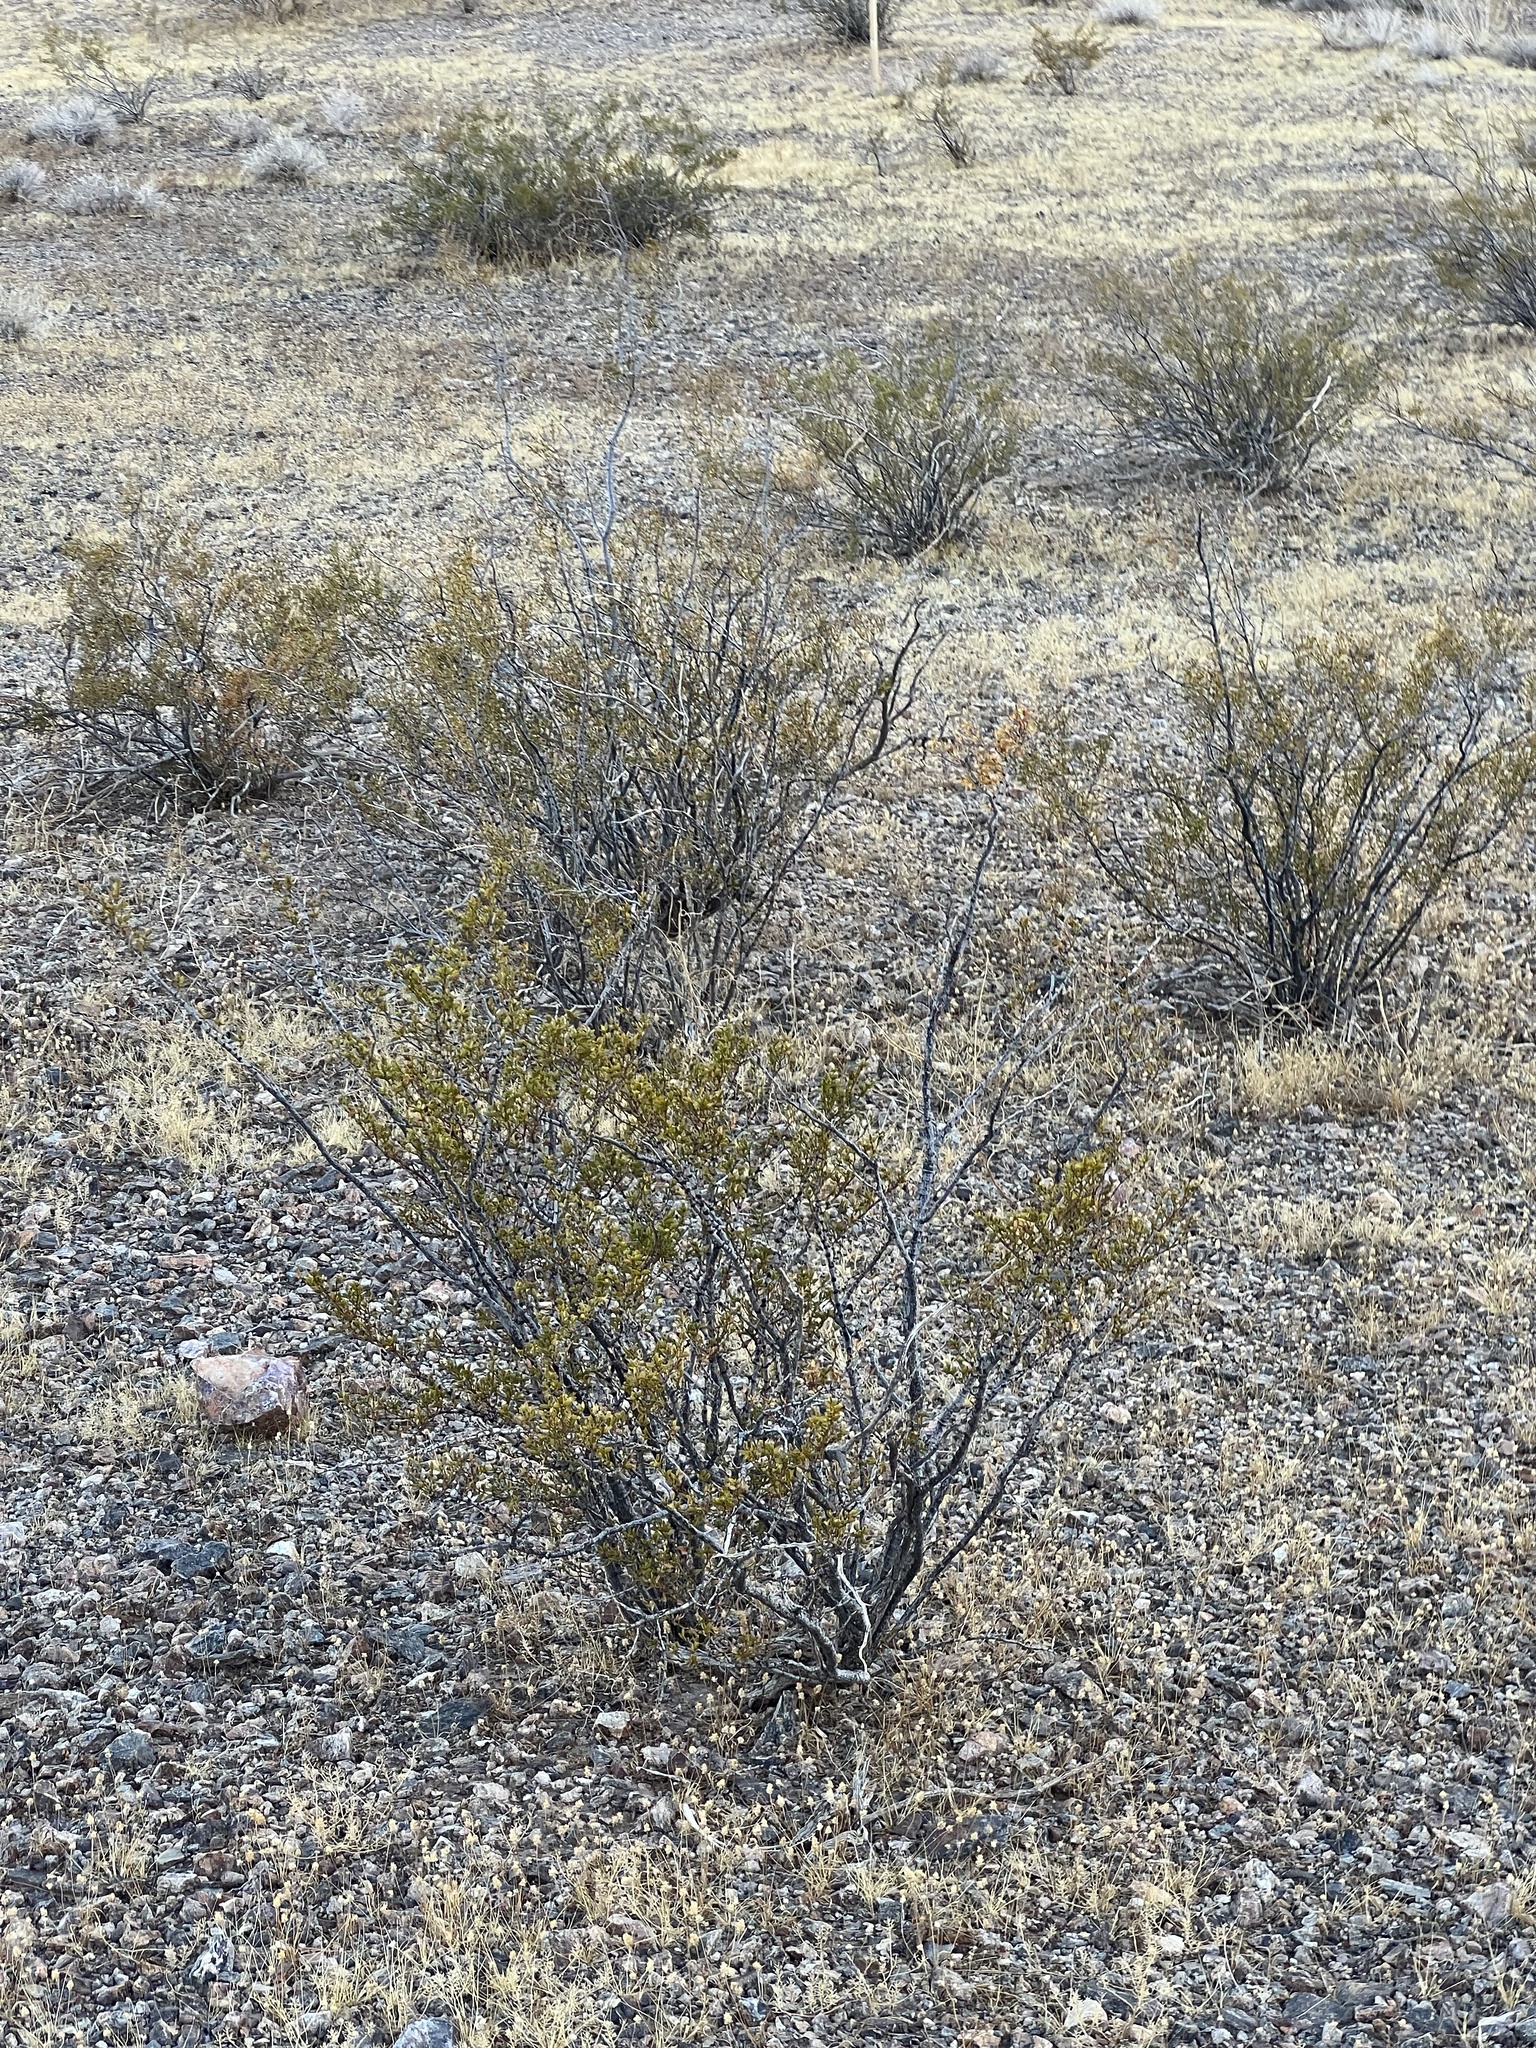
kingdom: Plantae
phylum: Tracheophyta
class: Magnoliopsida
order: Zygophyllales
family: Zygophyllaceae
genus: Larrea
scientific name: Larrea tridentata
